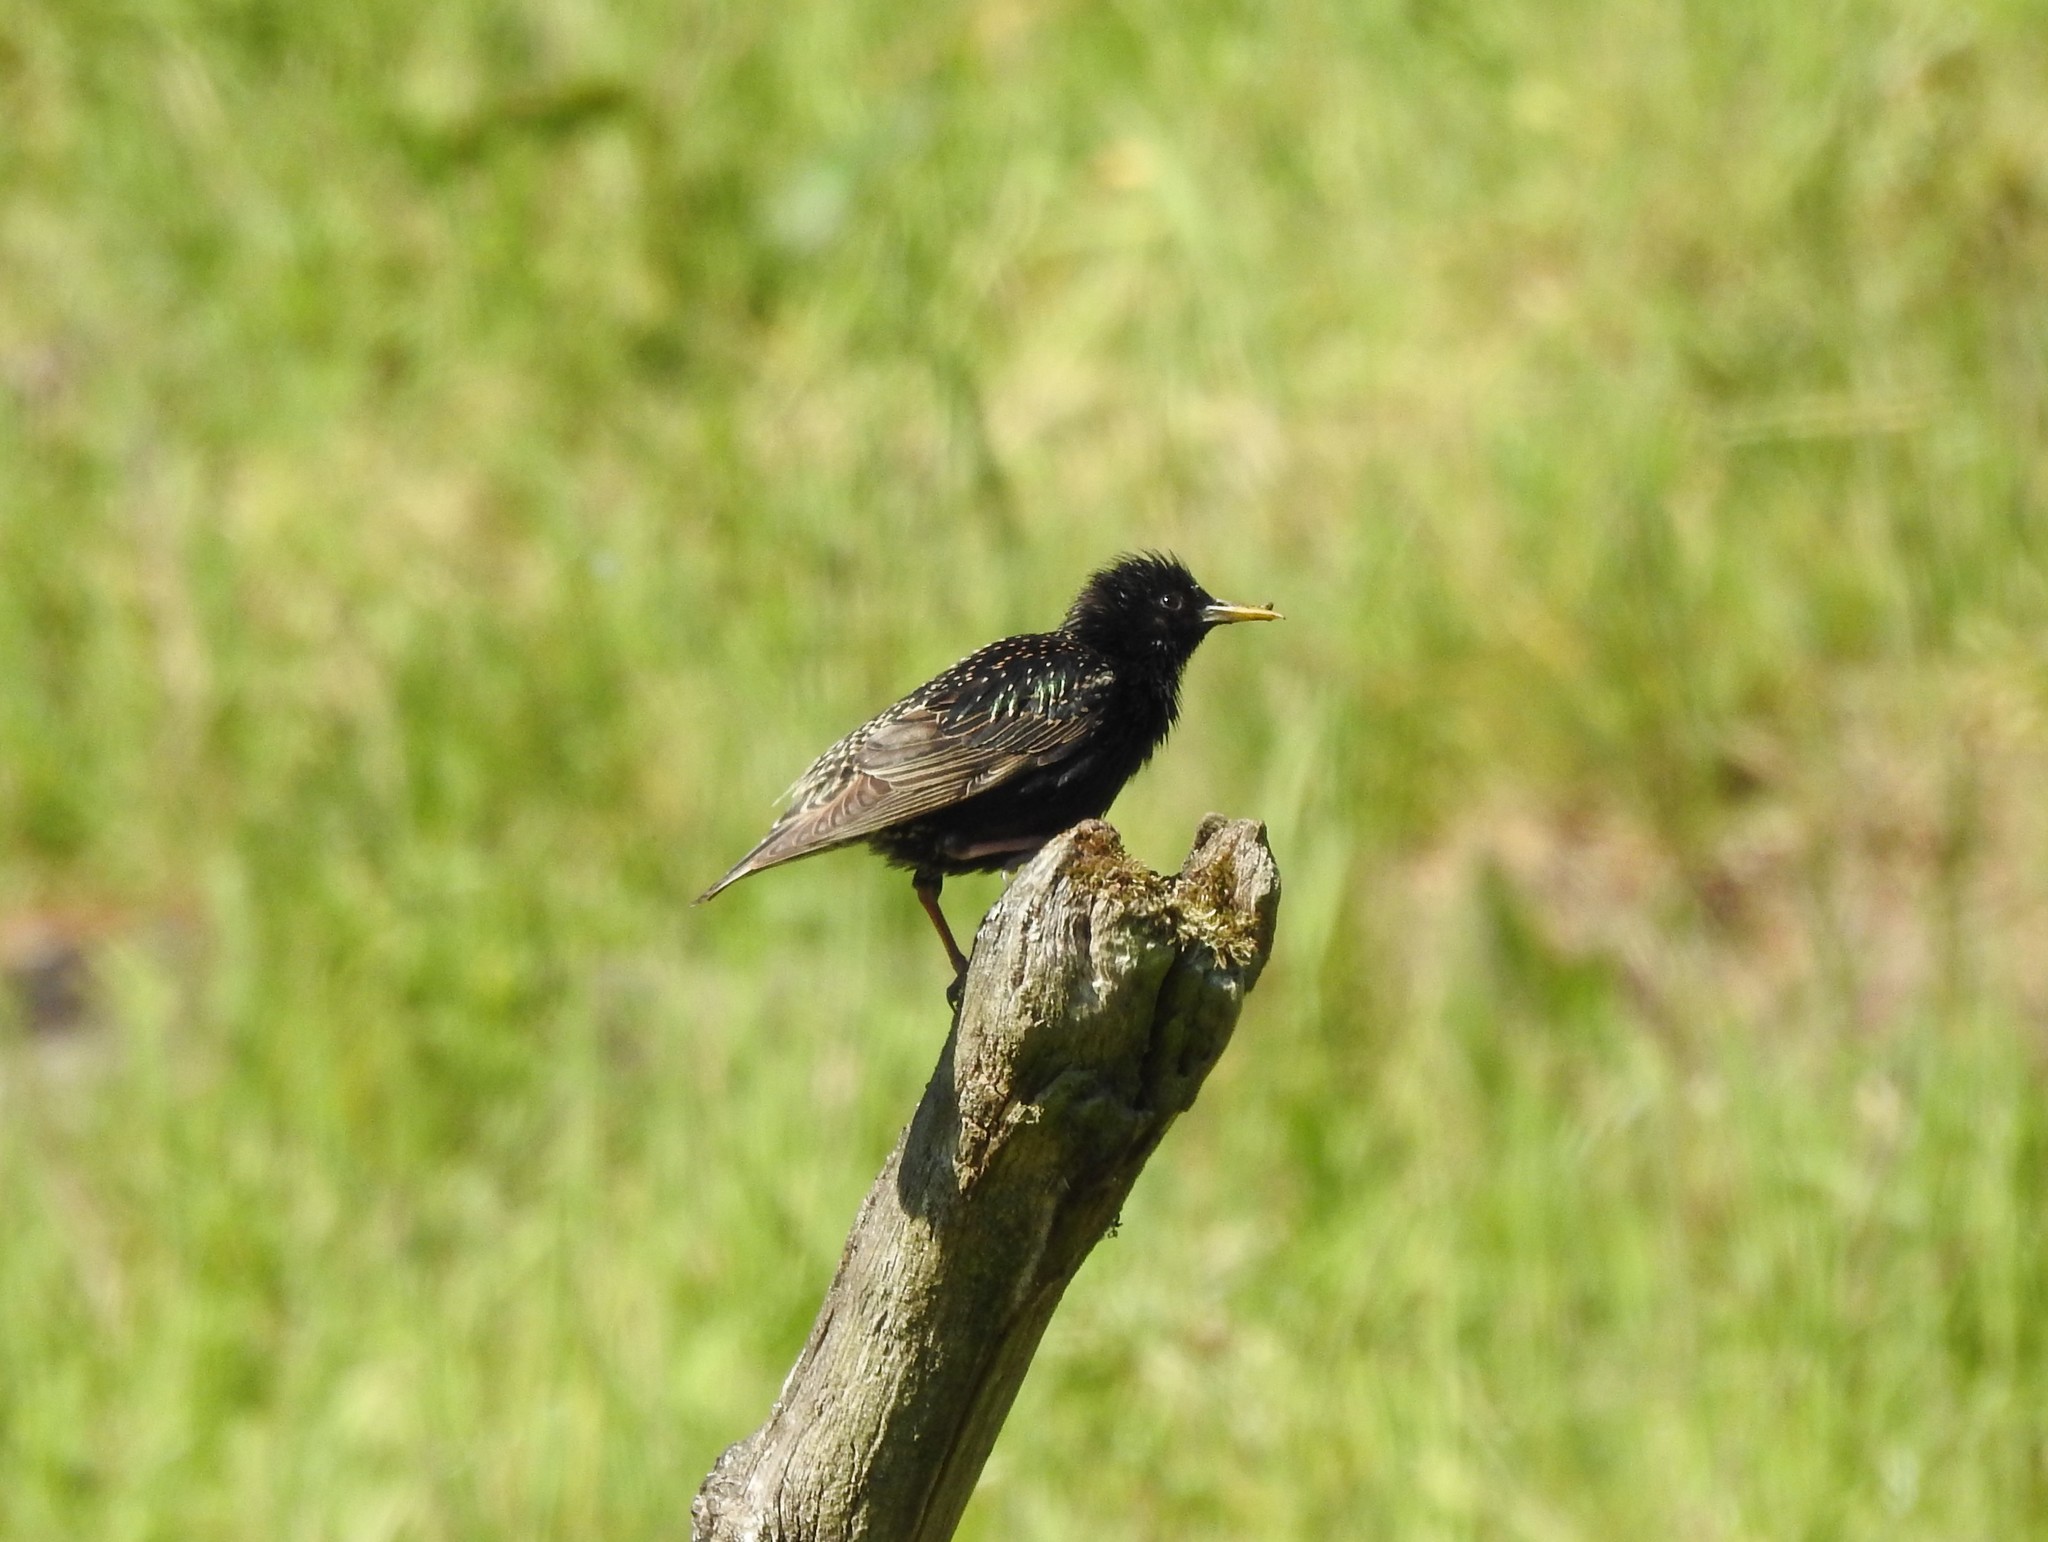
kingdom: Animalia
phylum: Chordata
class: Aves
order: Passeriformes
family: Sturnidae
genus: Sturnus
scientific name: Sturnus vulgaris
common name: Common starling
